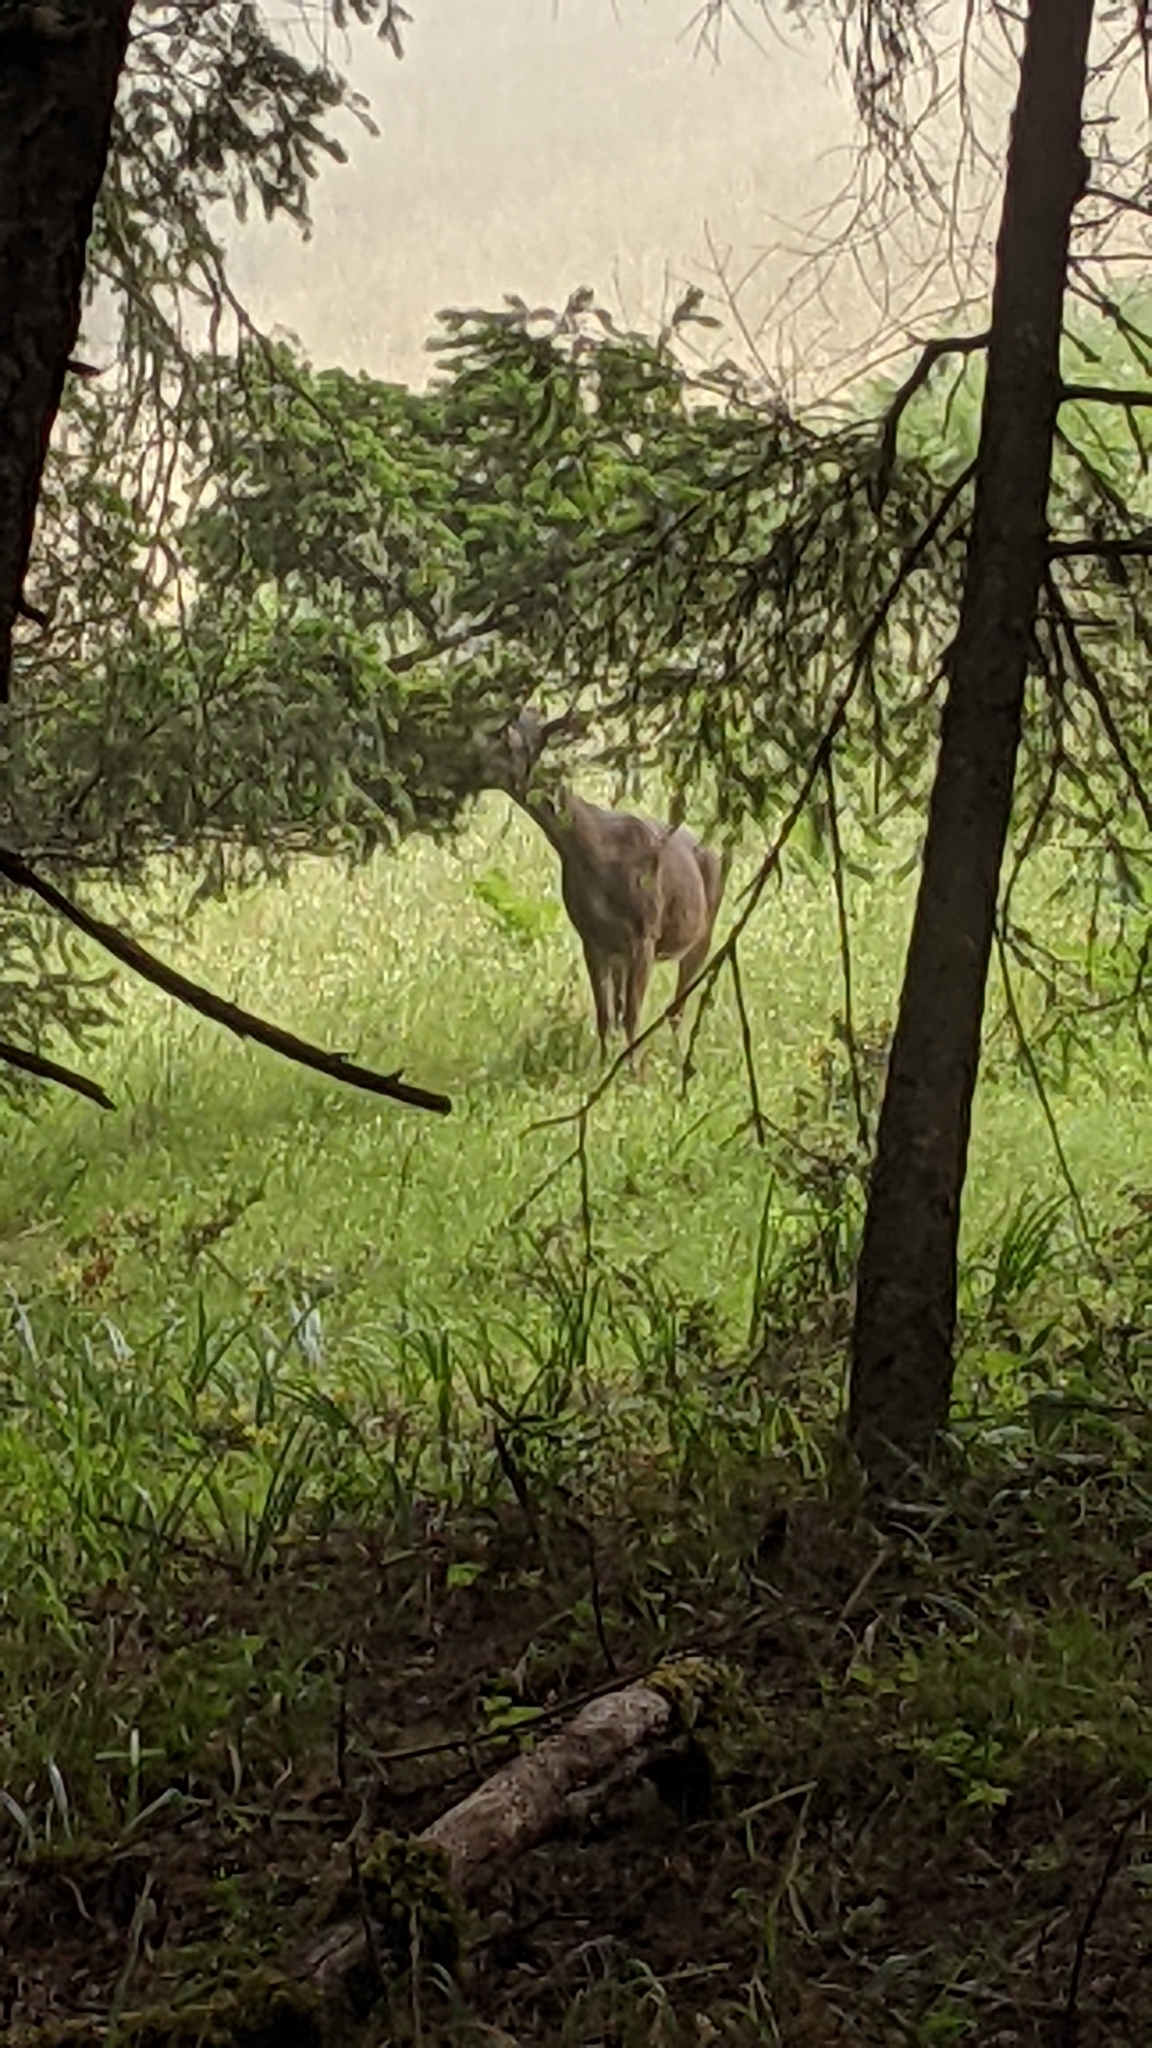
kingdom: Animalia
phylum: Chordata
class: Mammalia
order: Artiodactyla
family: Cervidae
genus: Odocoileus
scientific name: Odocoileus hemionus
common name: Mule deer
